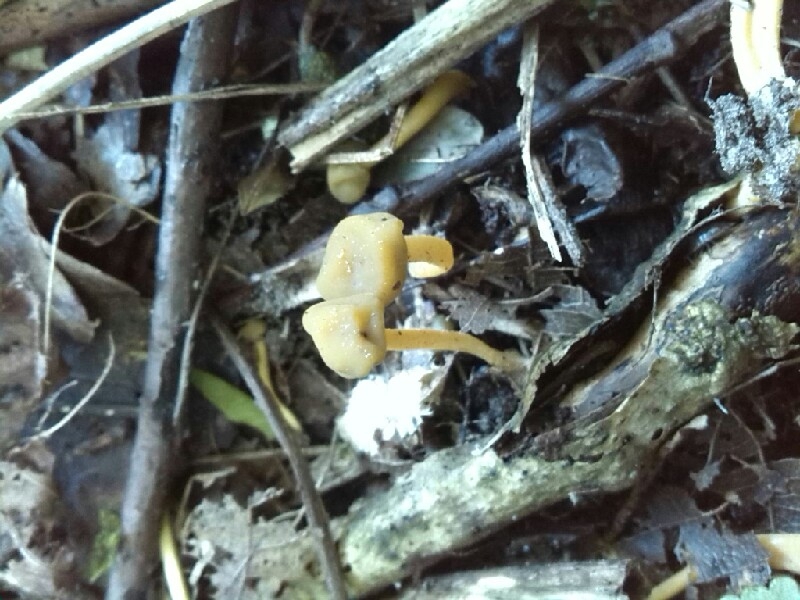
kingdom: Fungi
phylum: Ascomycota
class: Leotiomycetes
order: Leotiales
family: Leotiaceae
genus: Leotia
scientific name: Leotia lubrica
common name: Jellybaby
